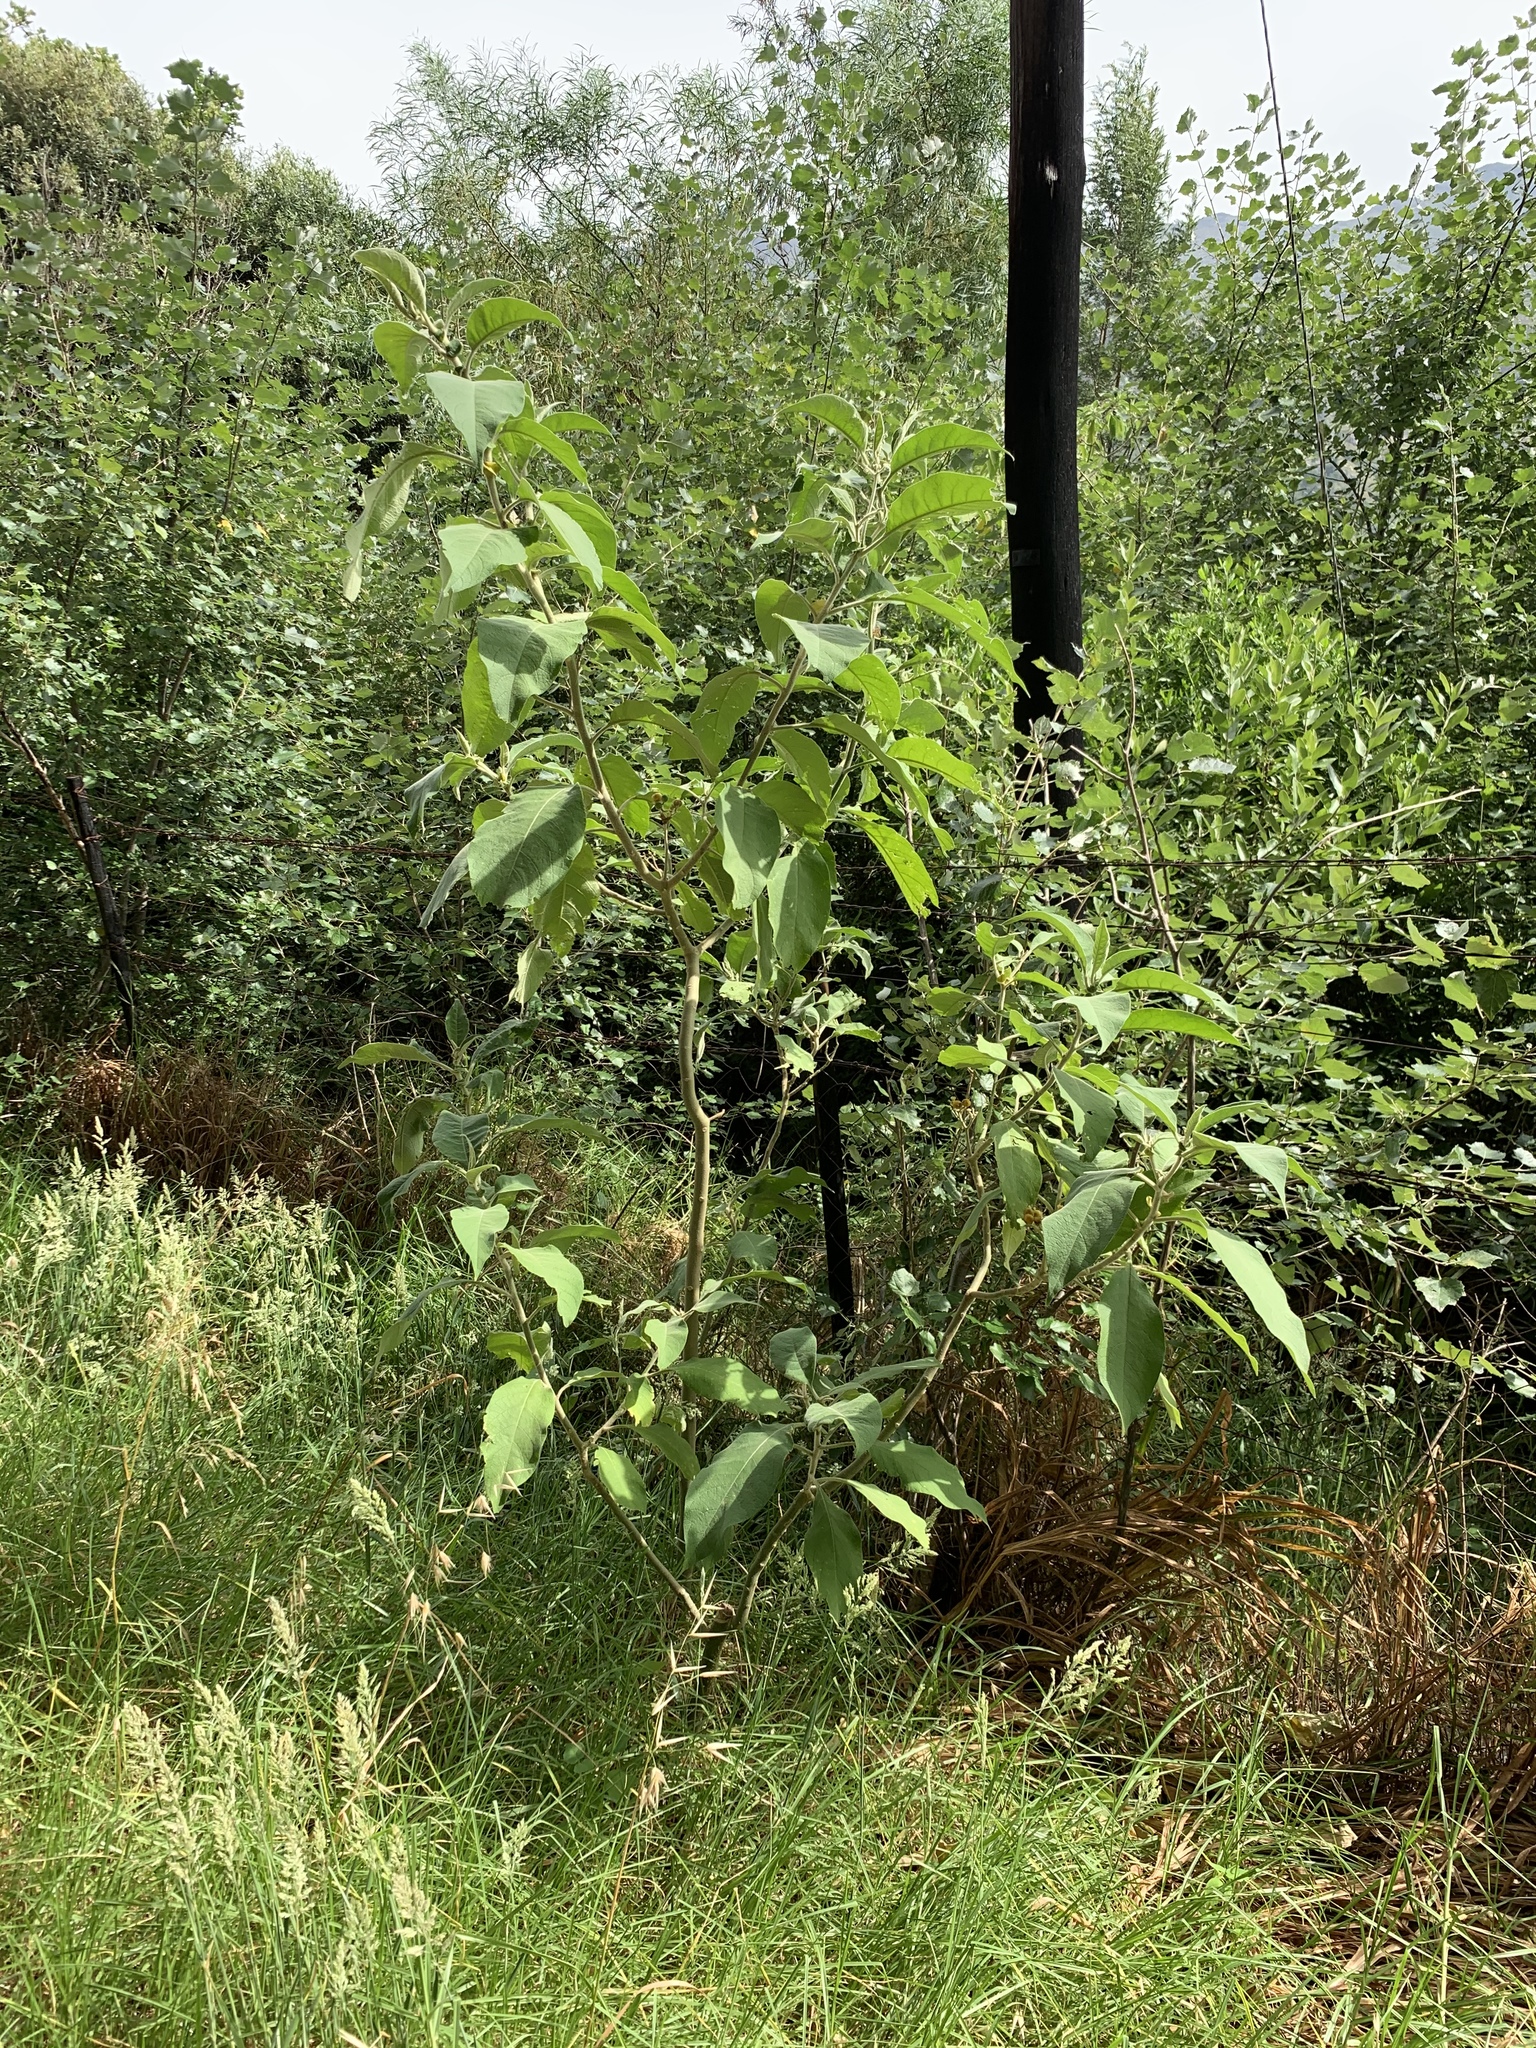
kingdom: Plantae
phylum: Tracheophyta
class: Magnoliopsida
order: Solanales
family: Solanaceae
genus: Solanum
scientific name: Solanum mauritianum
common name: Earleaf nightshade
